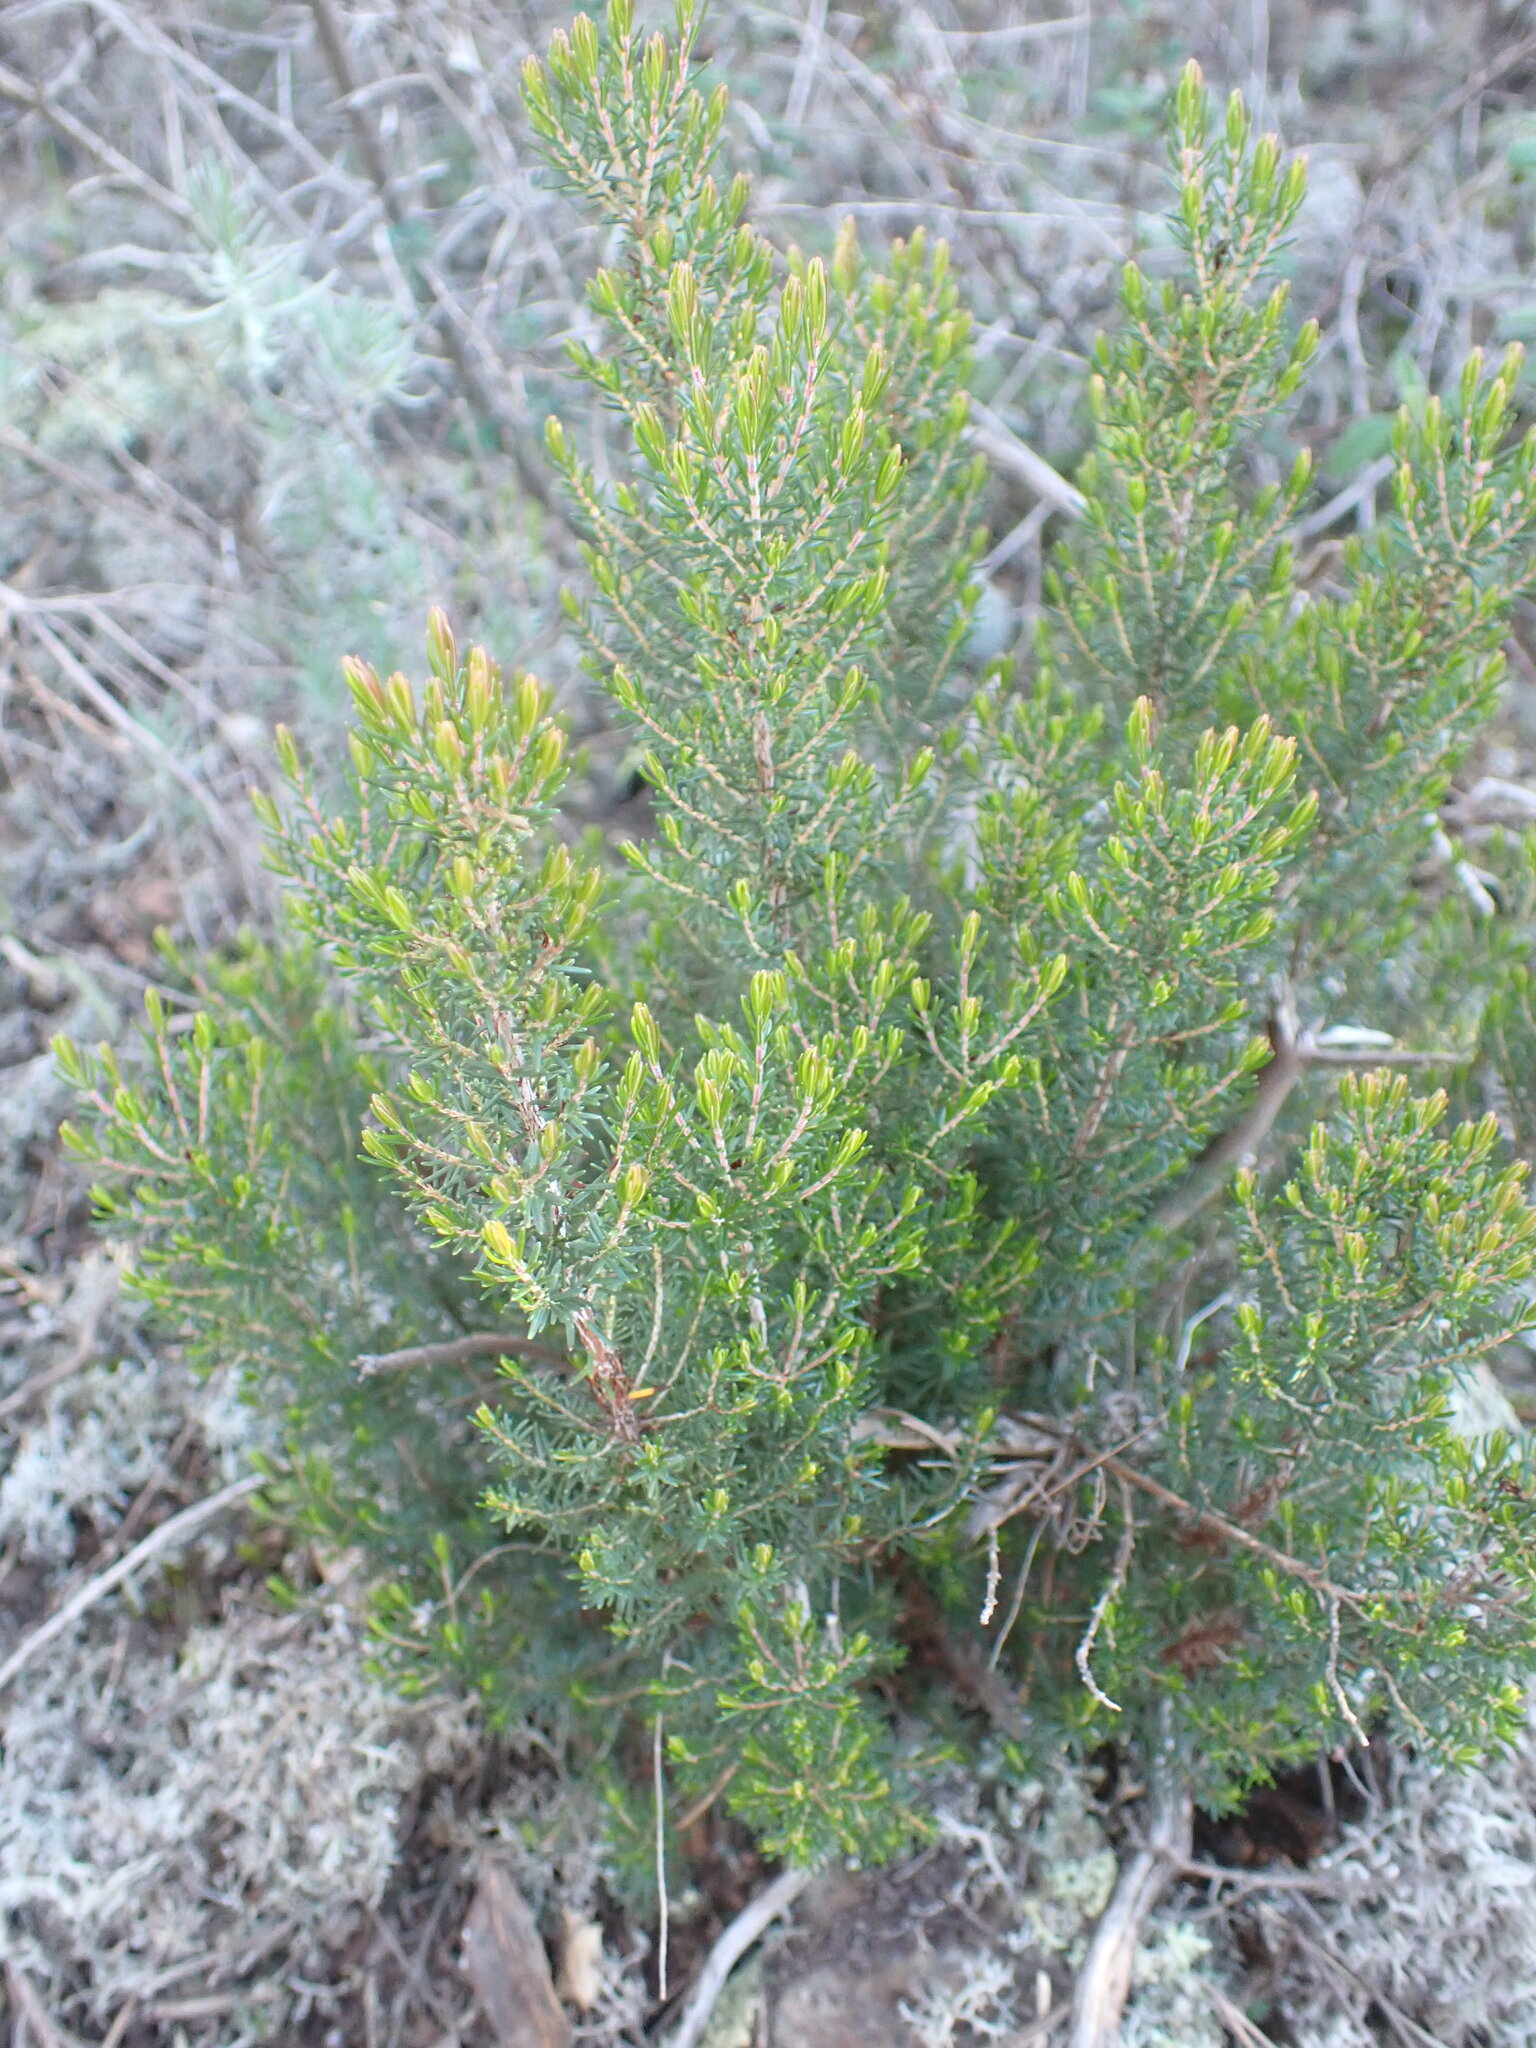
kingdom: Plantae
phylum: Tracheophyta
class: Magnoliopsida
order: Ericales
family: Ericaceae
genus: Erica
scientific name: Erica multiflora
